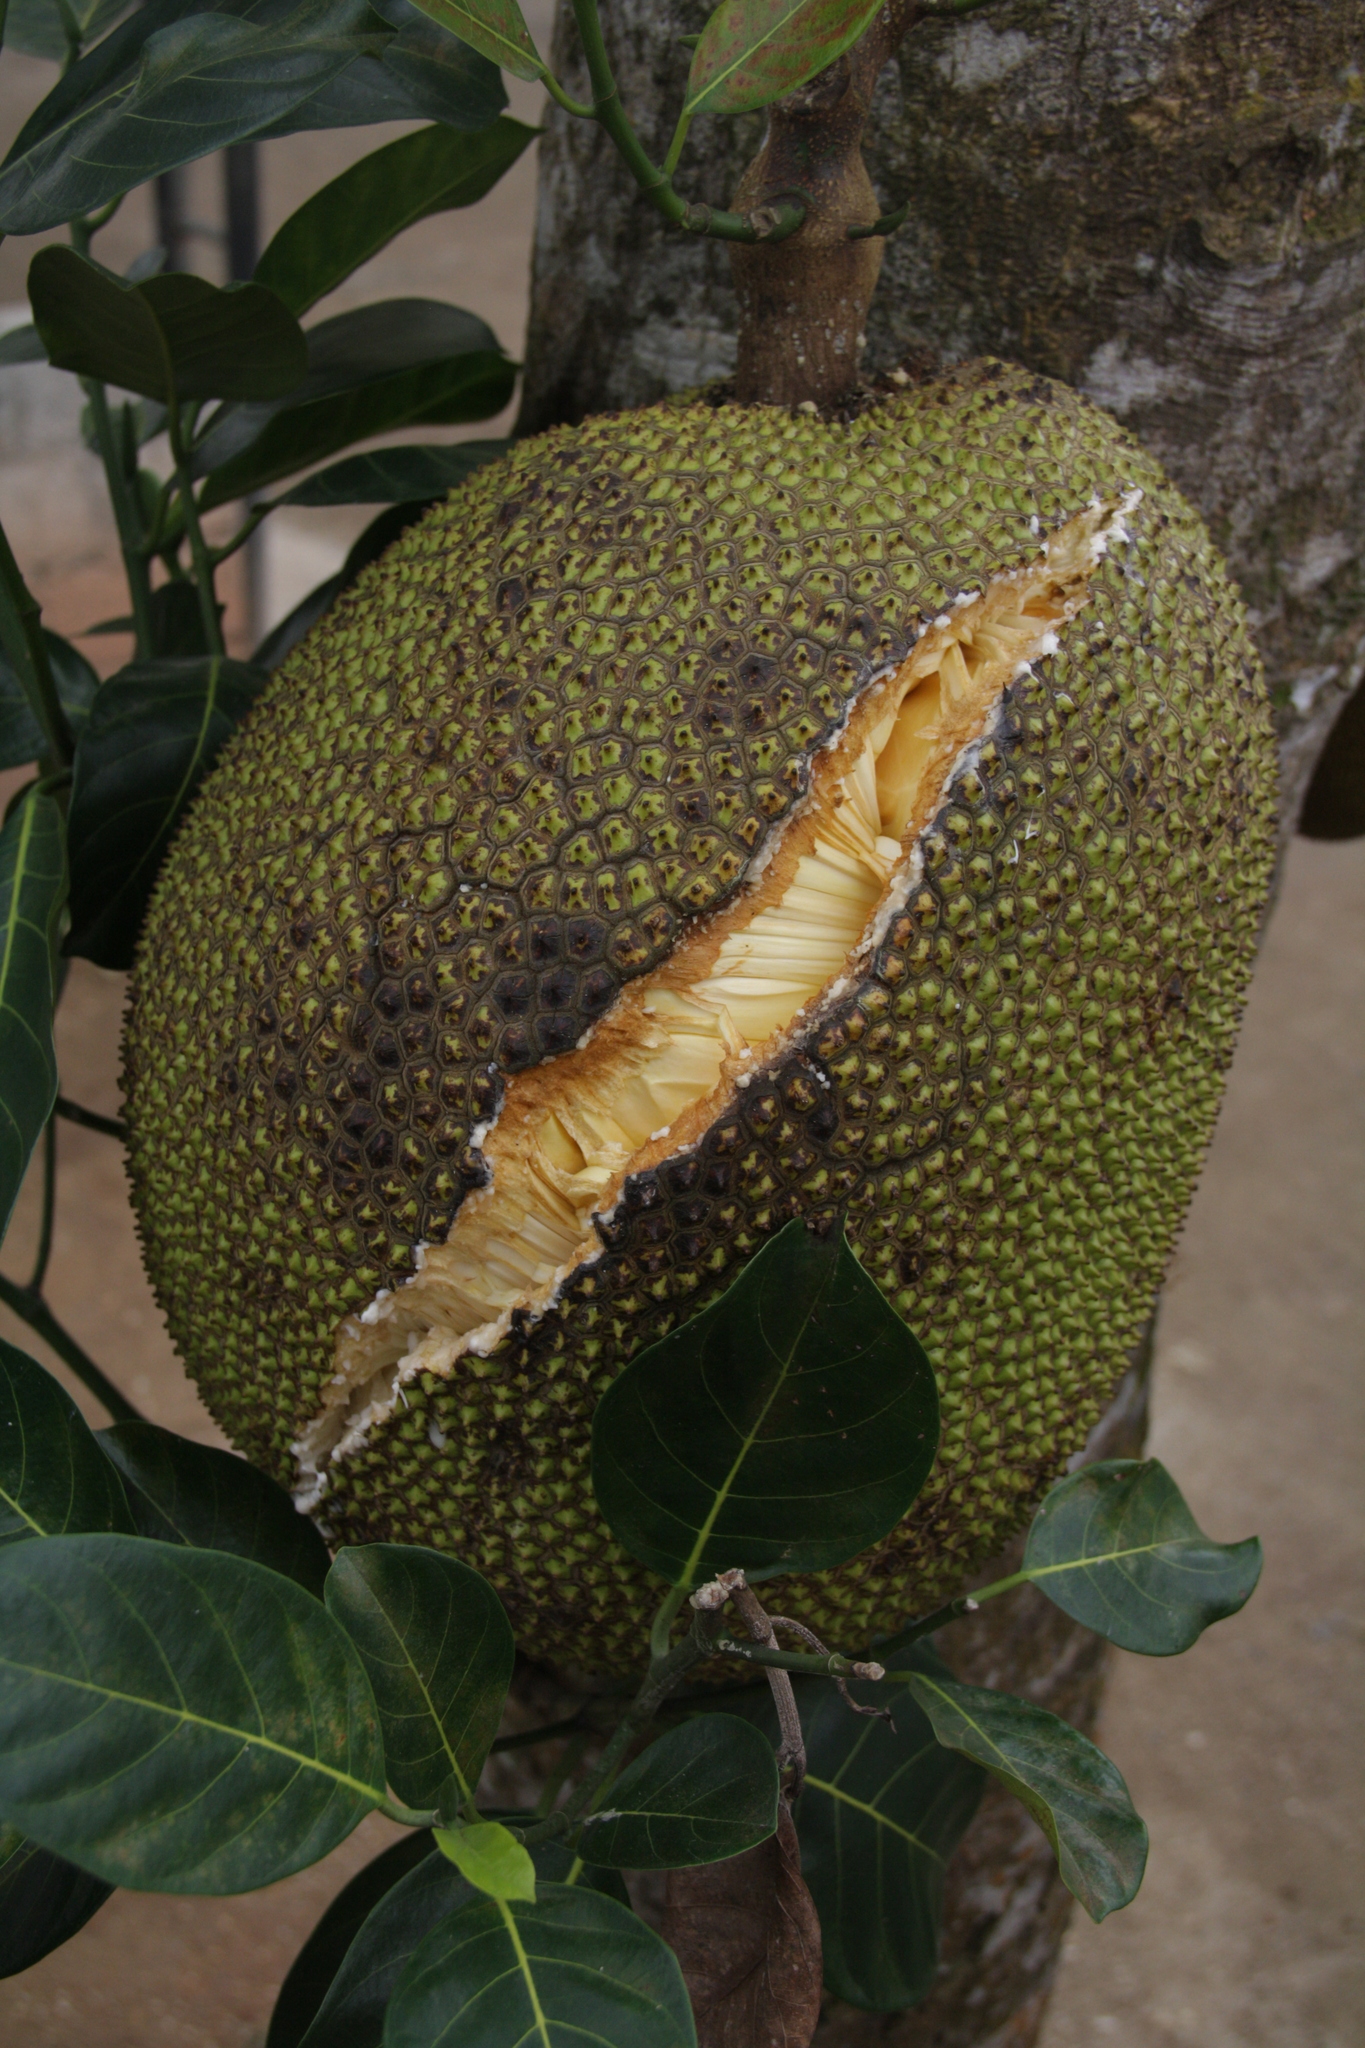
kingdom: Plantae
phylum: Tracheophyta
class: Magnoliopsida
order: Rosales
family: Moraceae
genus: Artocarpus
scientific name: Artocarpus heterophyllus
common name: Jackfruit
